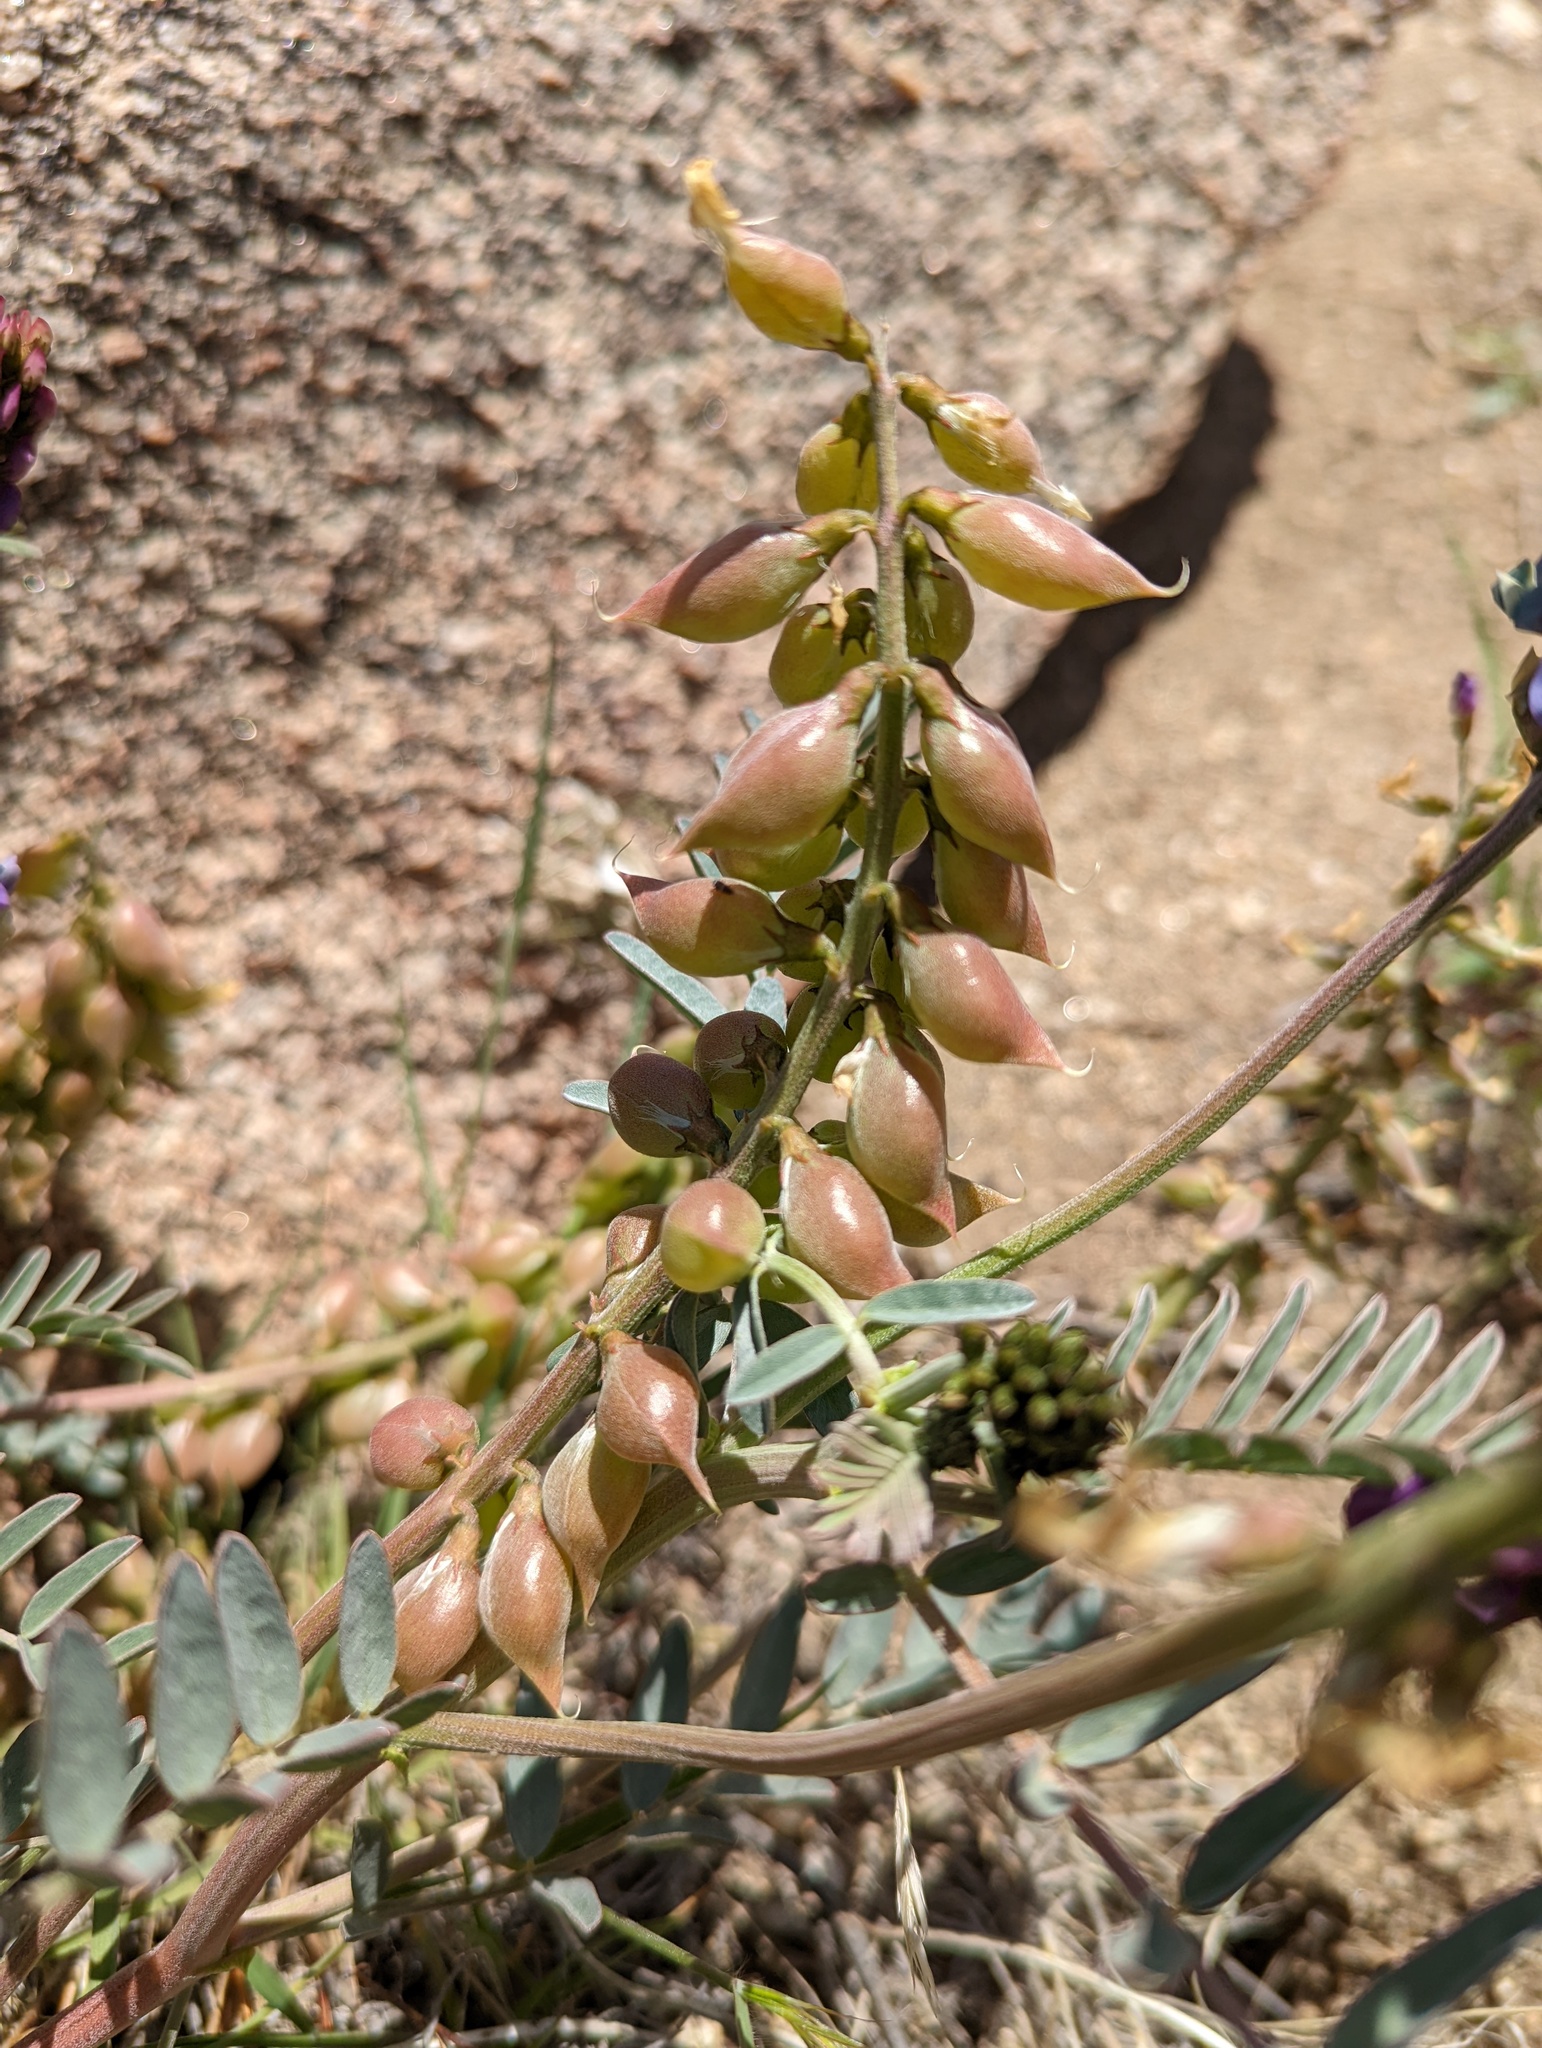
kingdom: Plantae
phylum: Tracheophyta
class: Magnoliopsida
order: Fabales
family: Fabaceae
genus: Astragalus
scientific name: Astragalus palmeri
